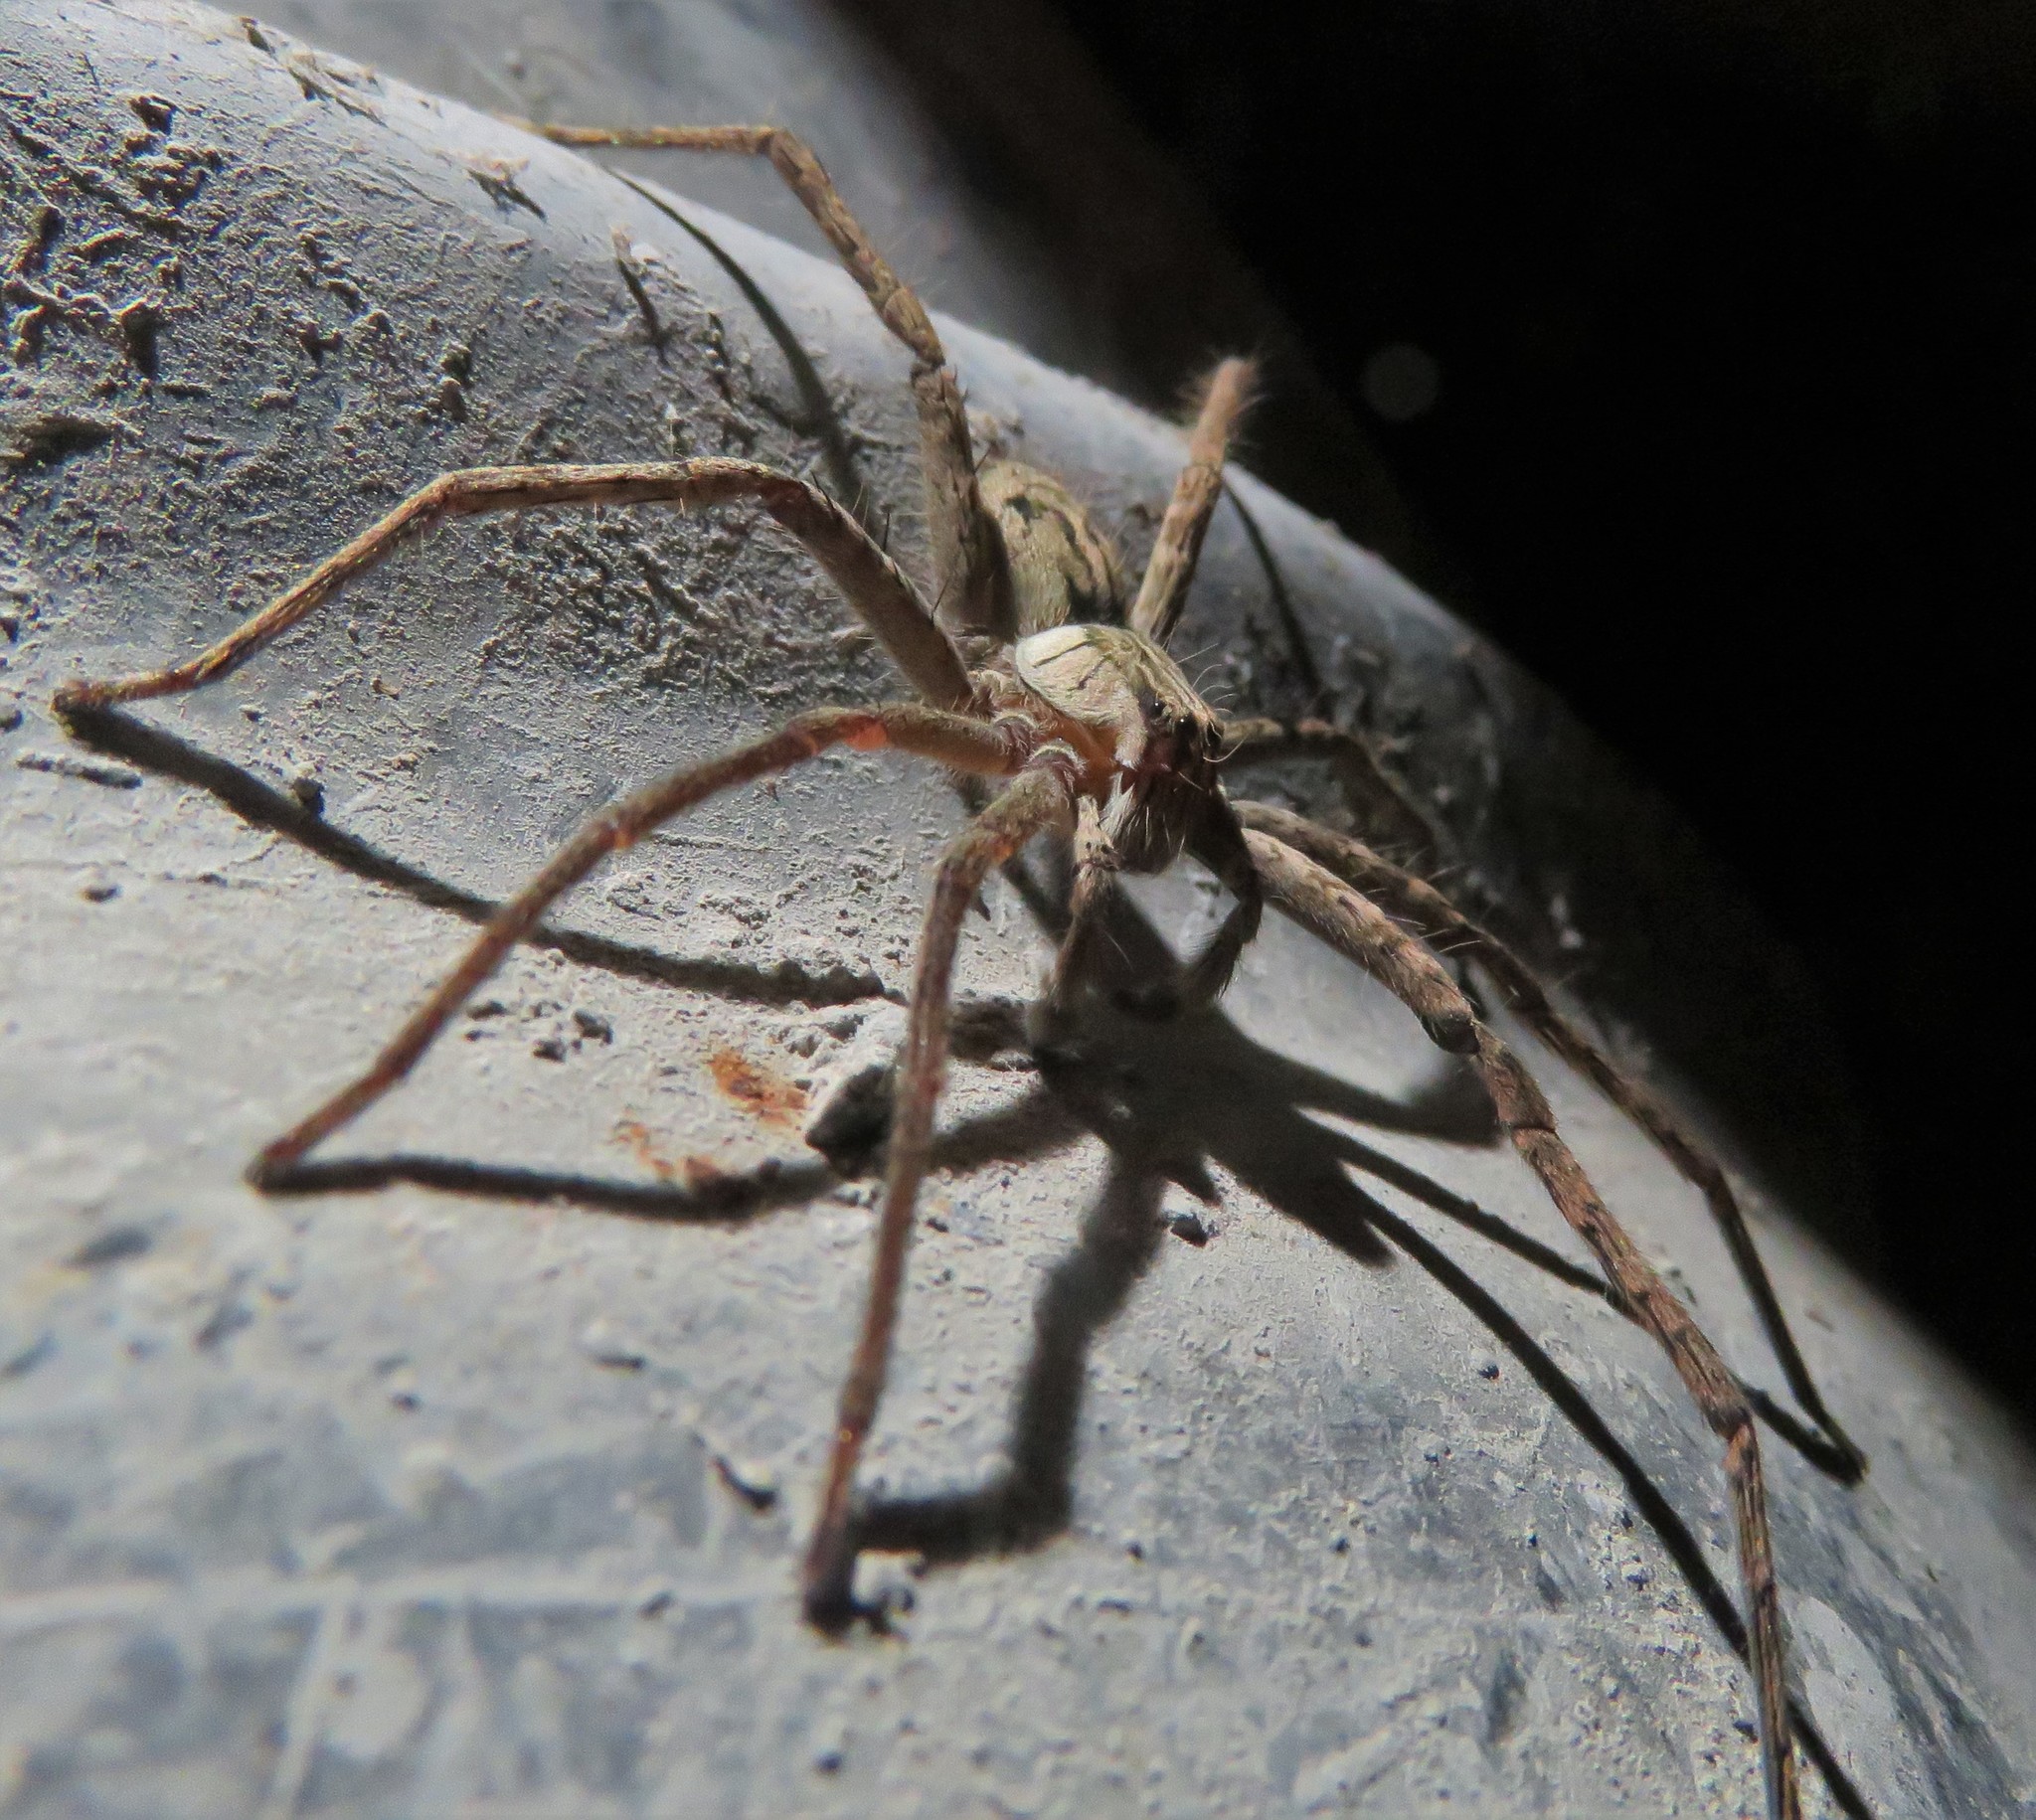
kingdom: Animalia
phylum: Arthropoda
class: Arachnida
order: Araneae
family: Trechaleidae
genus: Cupiennius
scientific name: Cupiennius coccineus
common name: Wandering spiders
